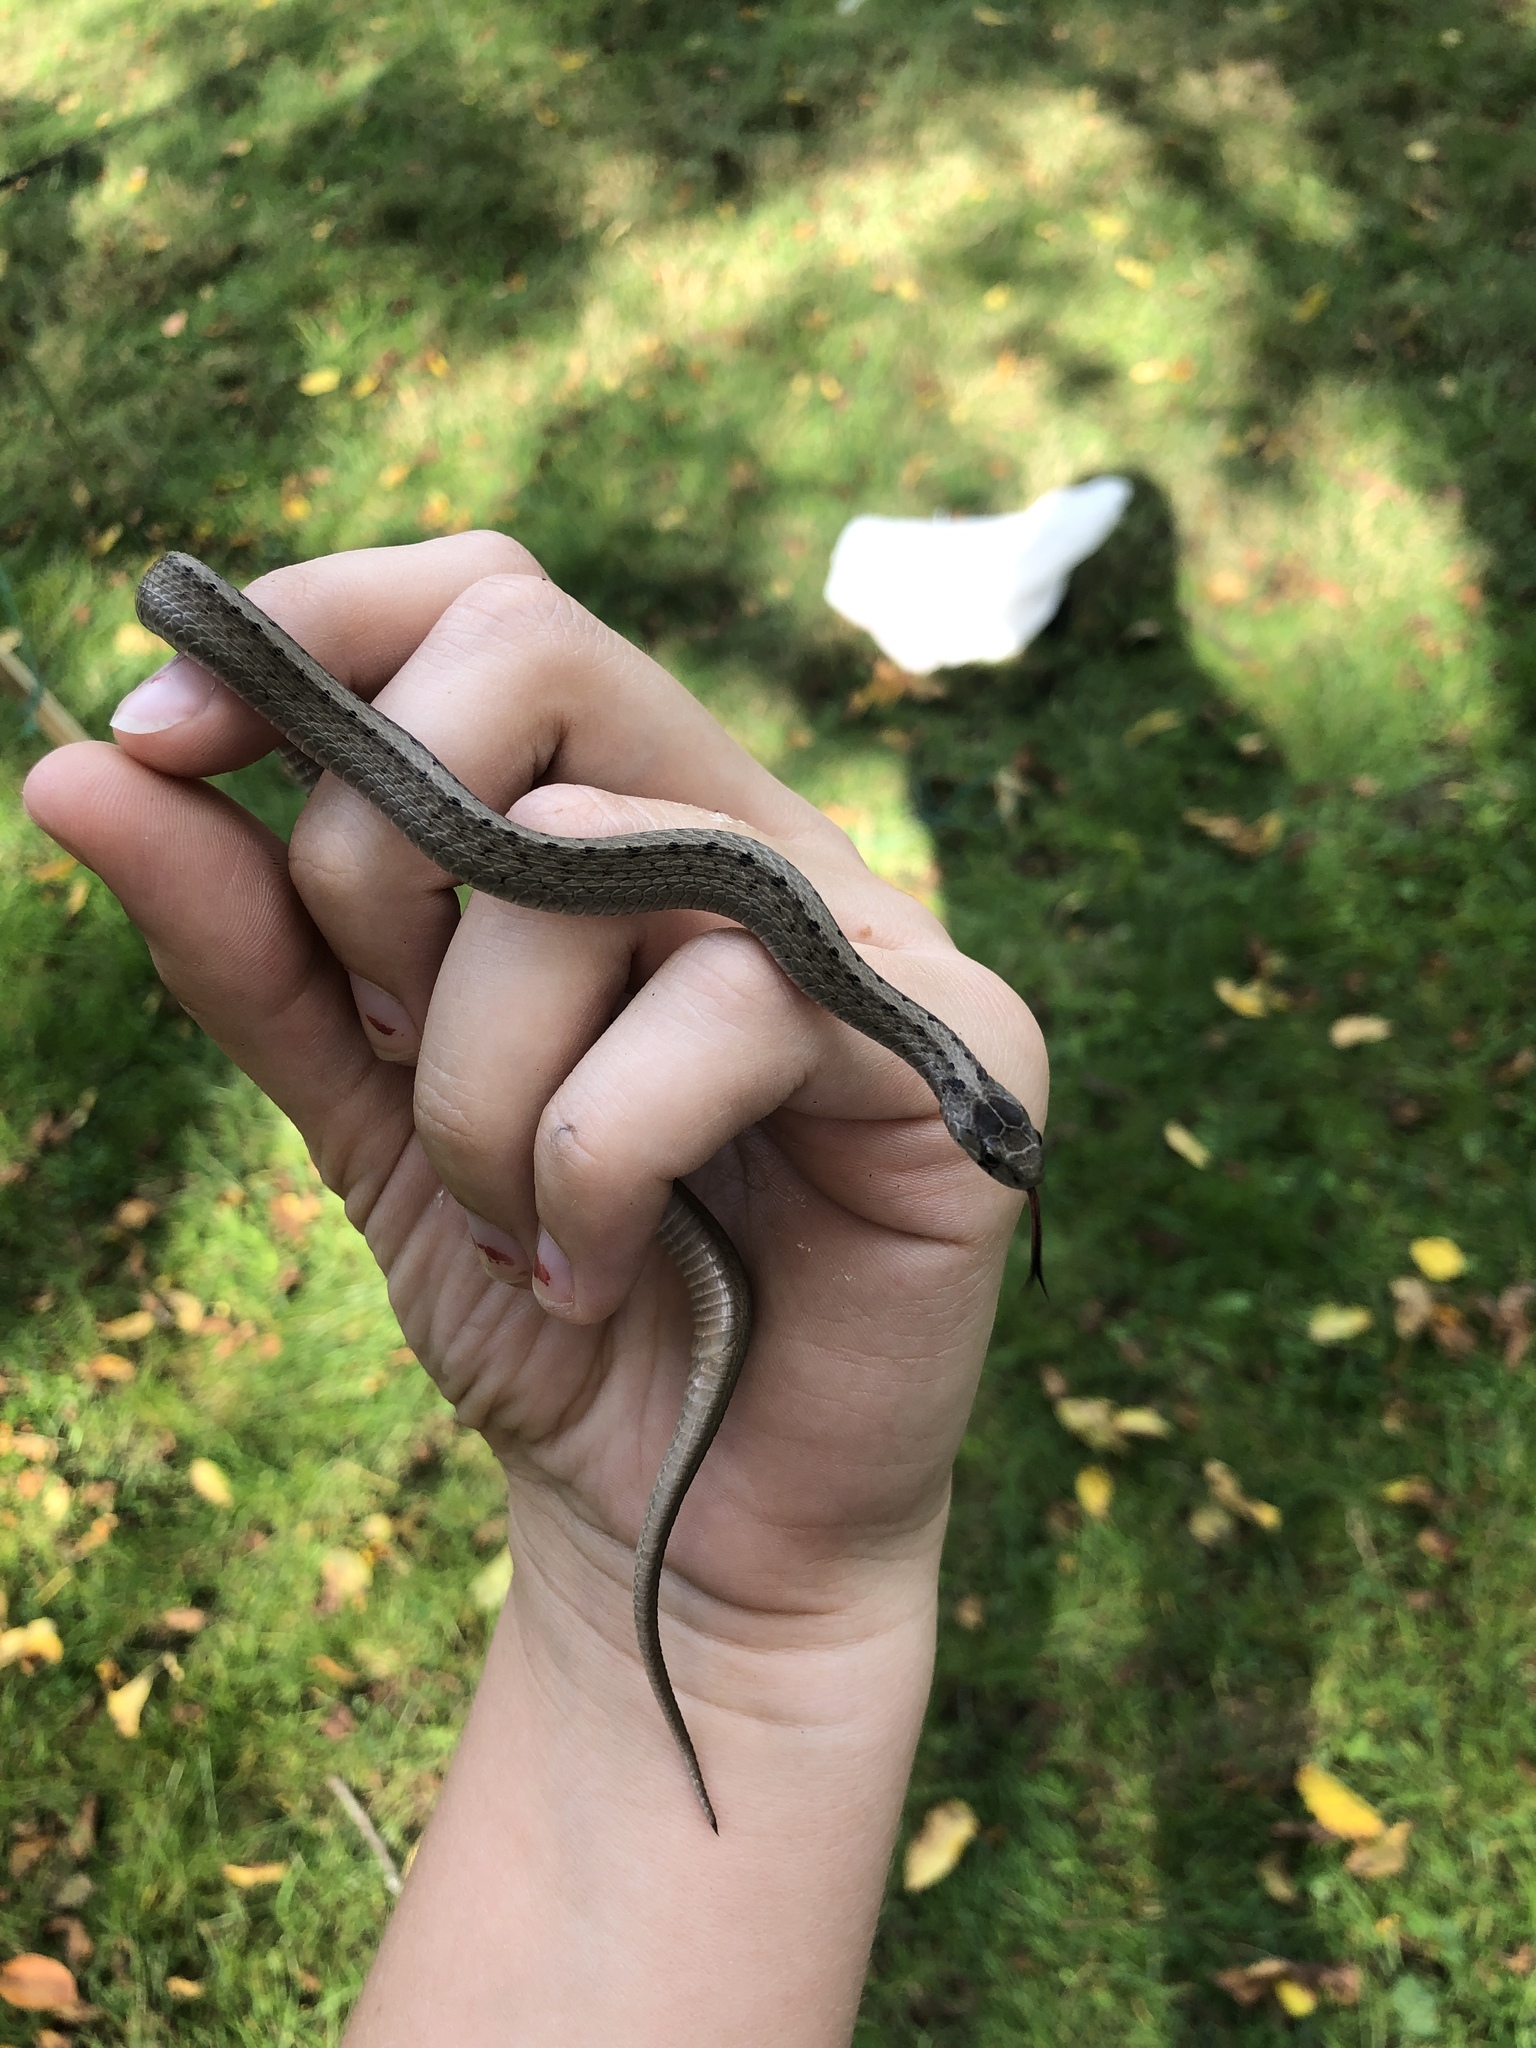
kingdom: Animalia
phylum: Chordata
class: Squamata
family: Colubridae
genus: Storeria
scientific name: Storeria dekayi
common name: (dekay’s) brown snake
